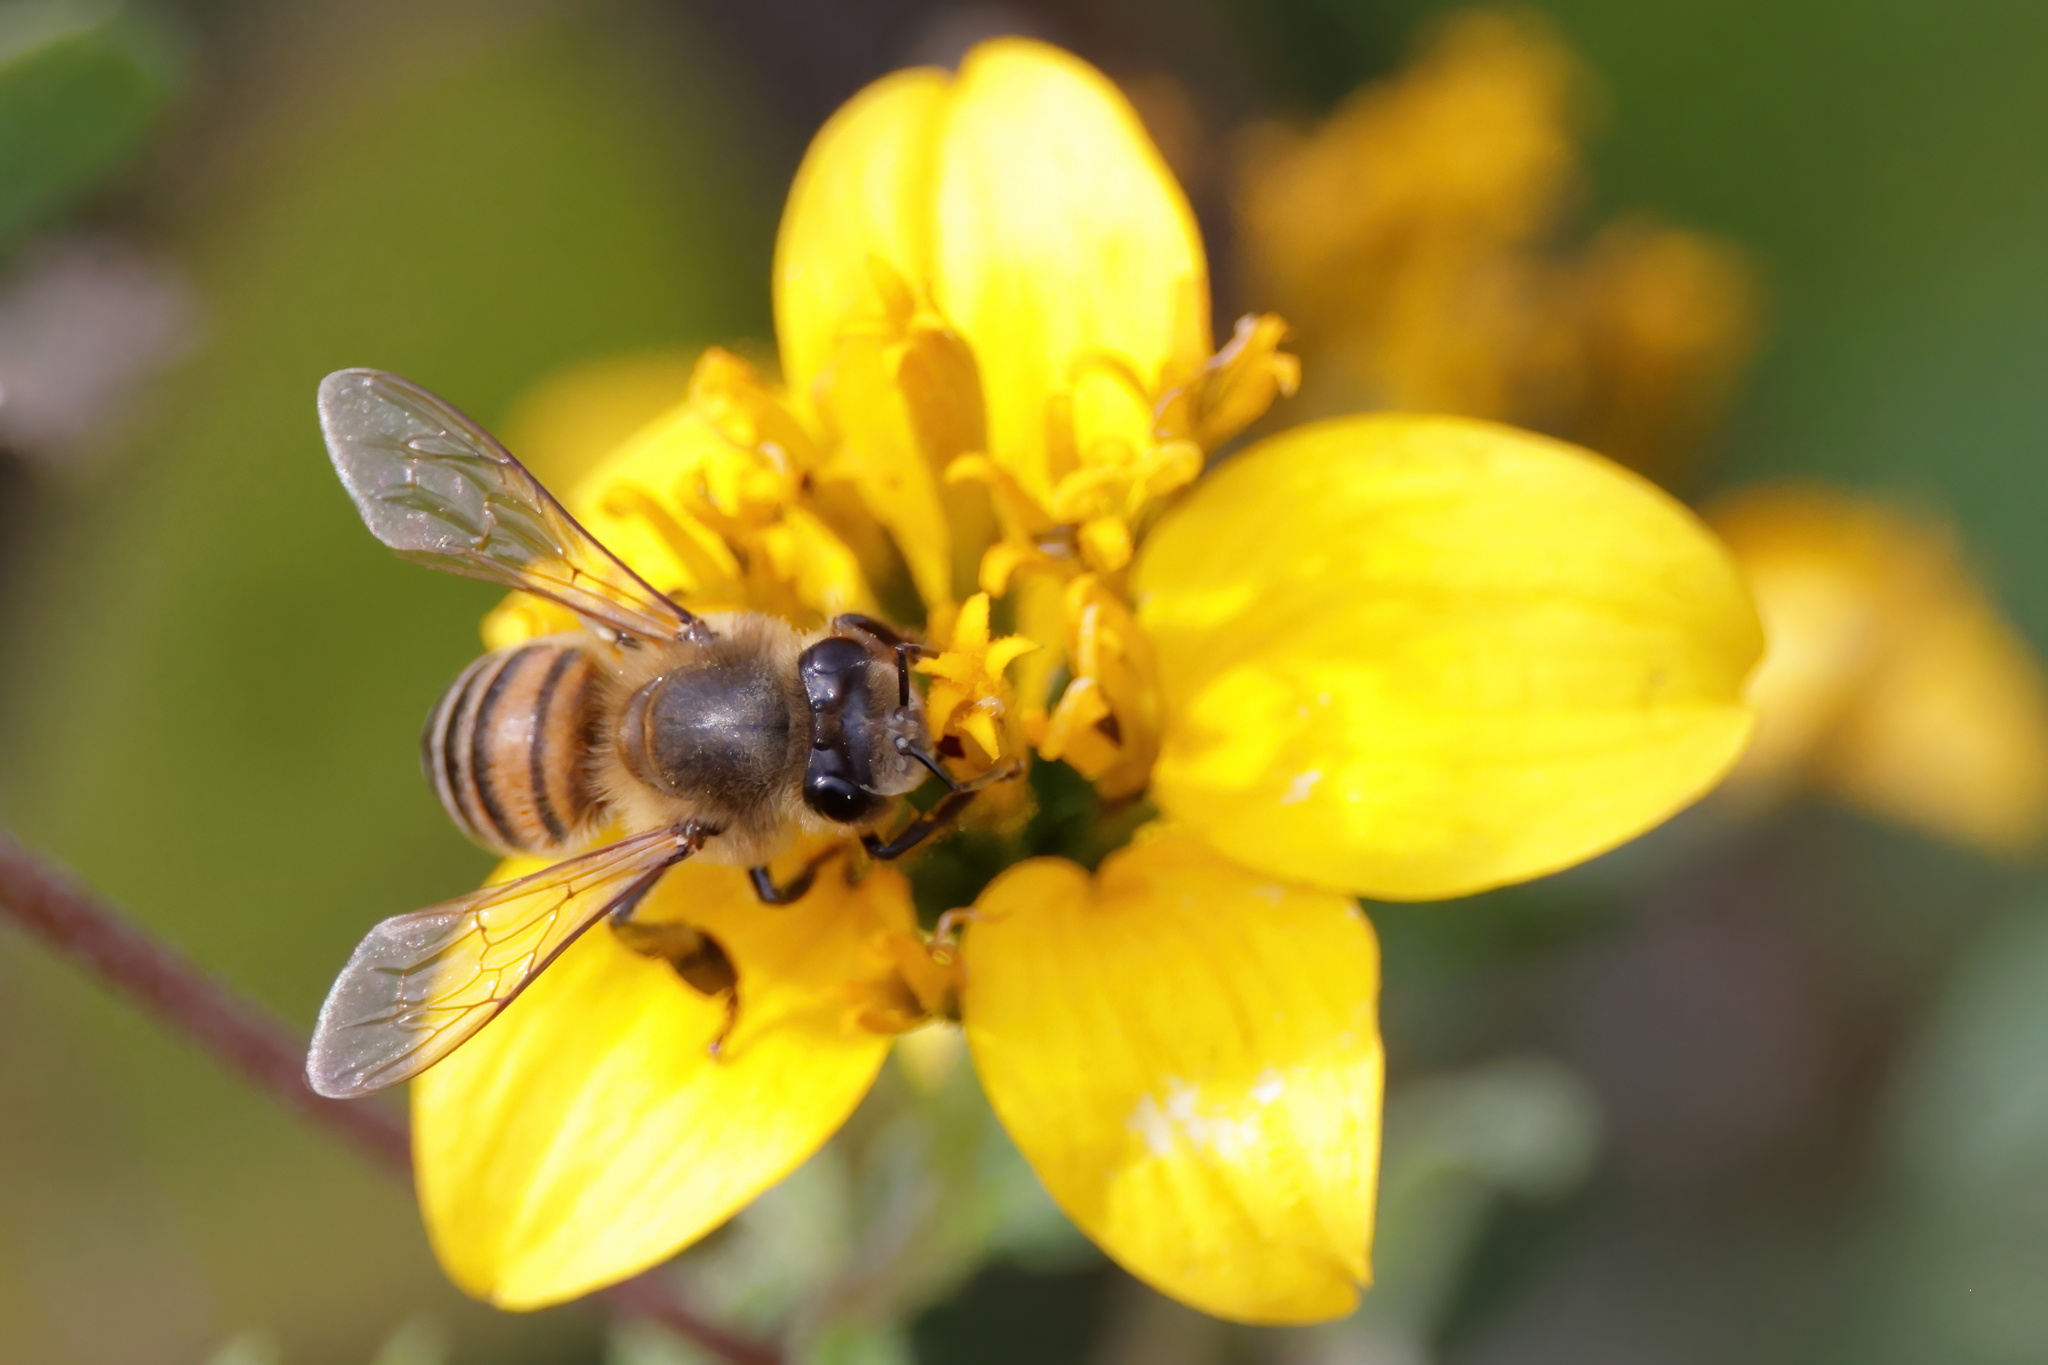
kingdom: Plantae
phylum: Tracheophyta
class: Magnoliopsida
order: Asterales
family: Asteraceae
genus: Sclerocarpus
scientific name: Sclerocarpus uniserialis
